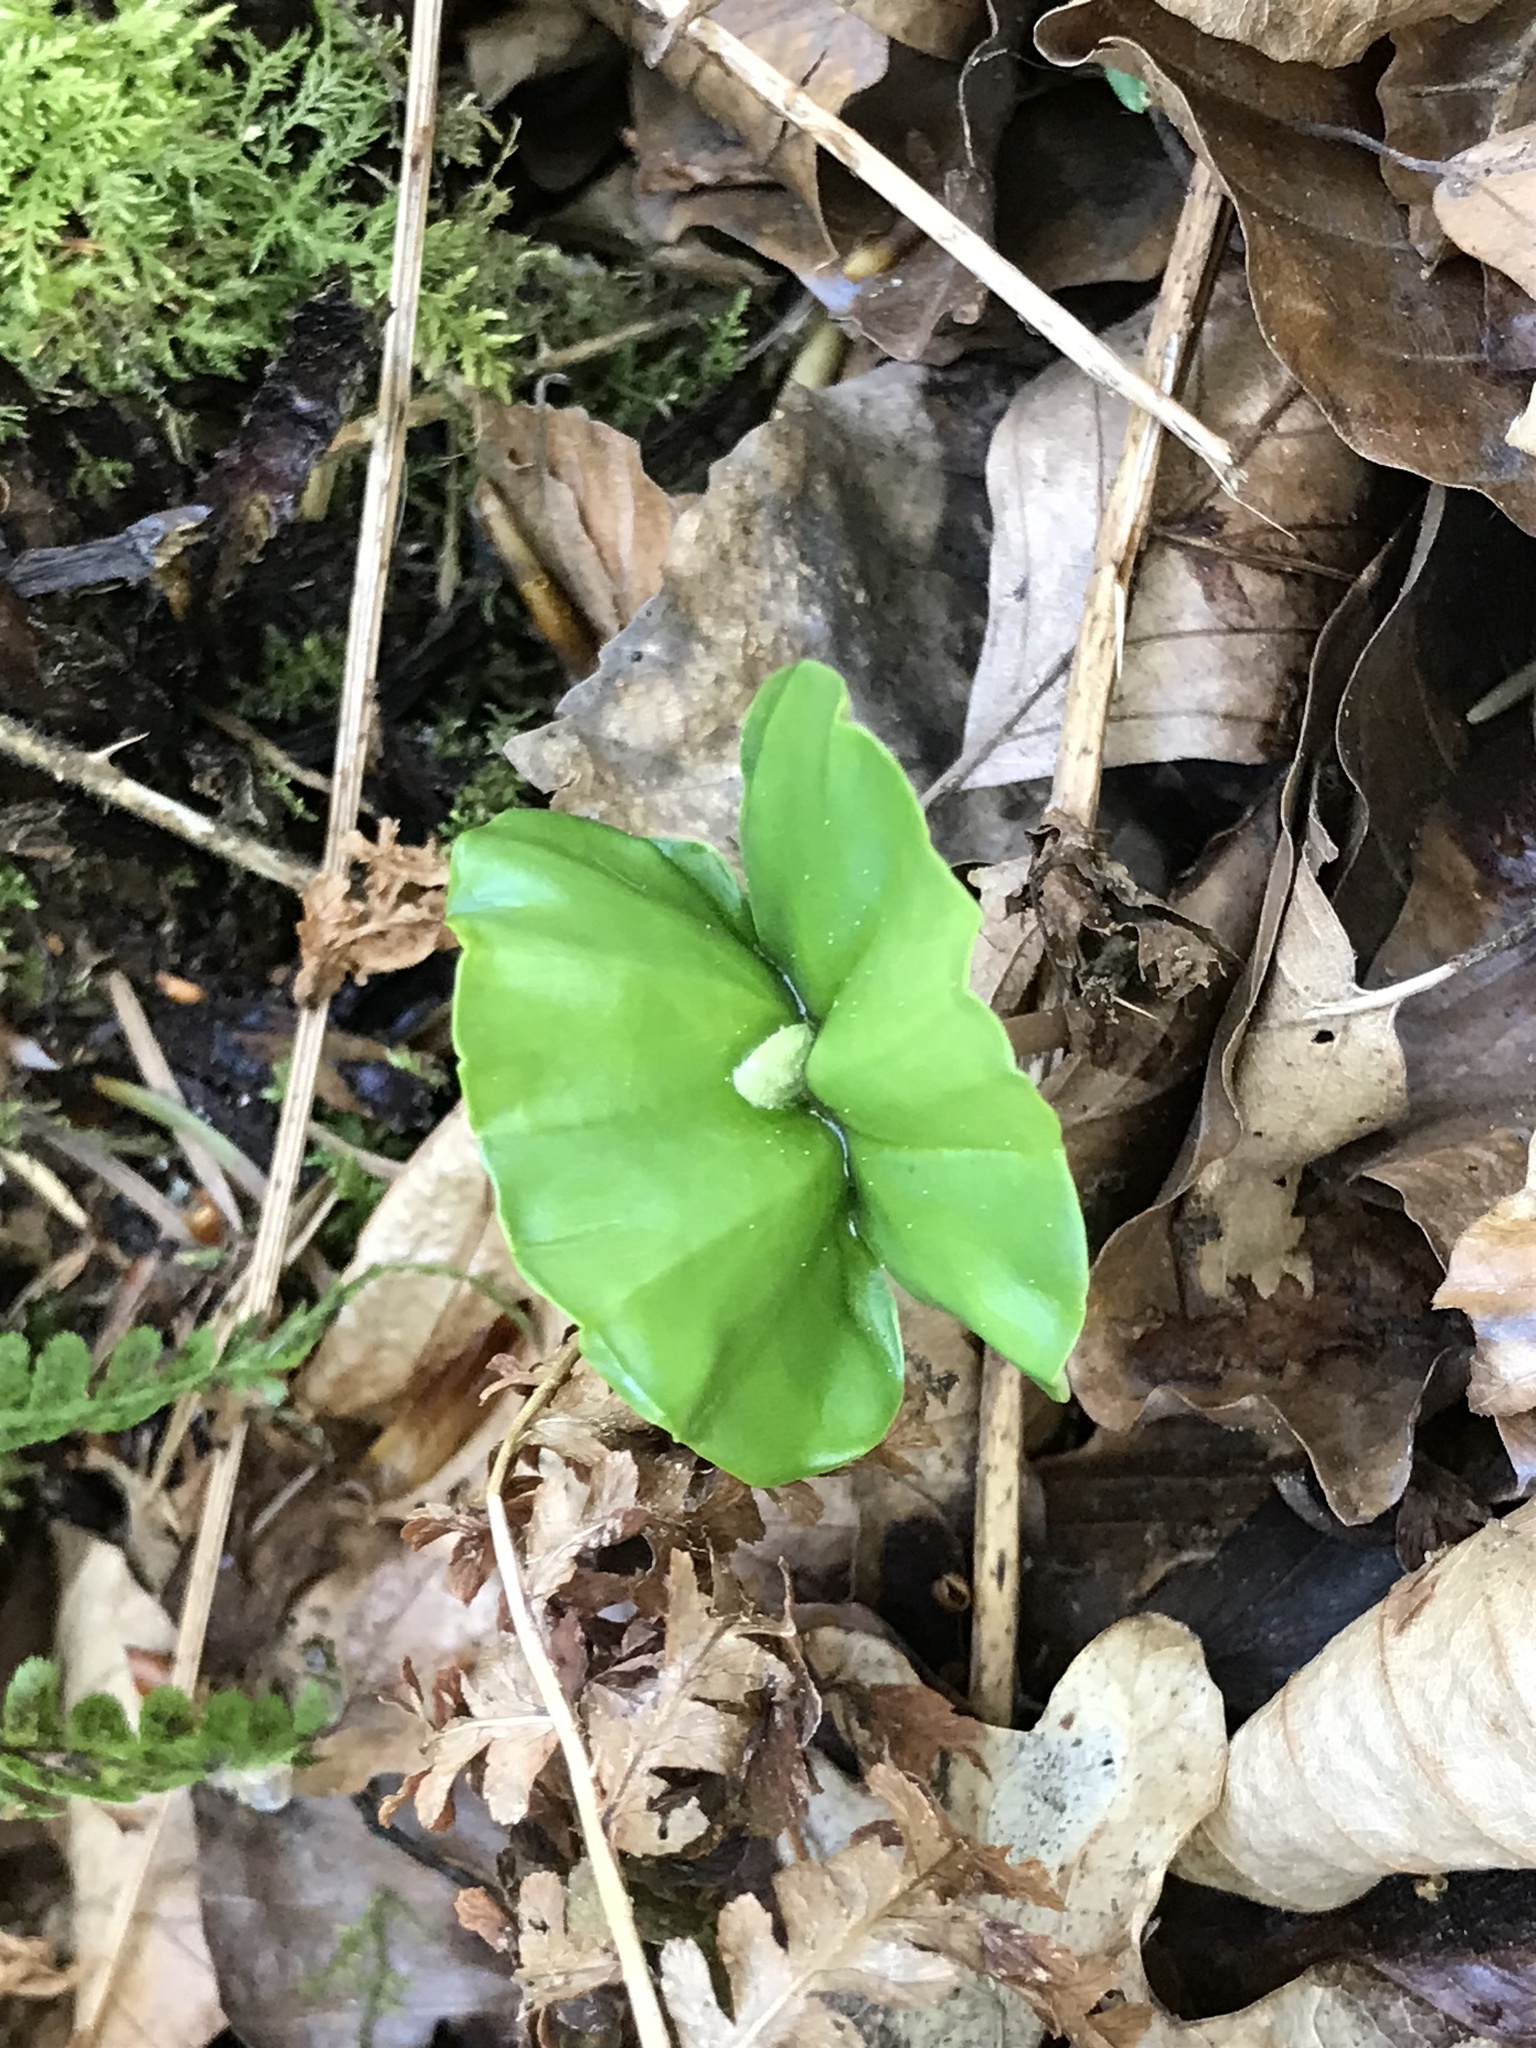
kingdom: Plantae
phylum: Tracheophyta
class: Magnoliopsida
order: Fagales
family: Fagaceae
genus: Fagus
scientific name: Fagus sylvatica
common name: Beech
